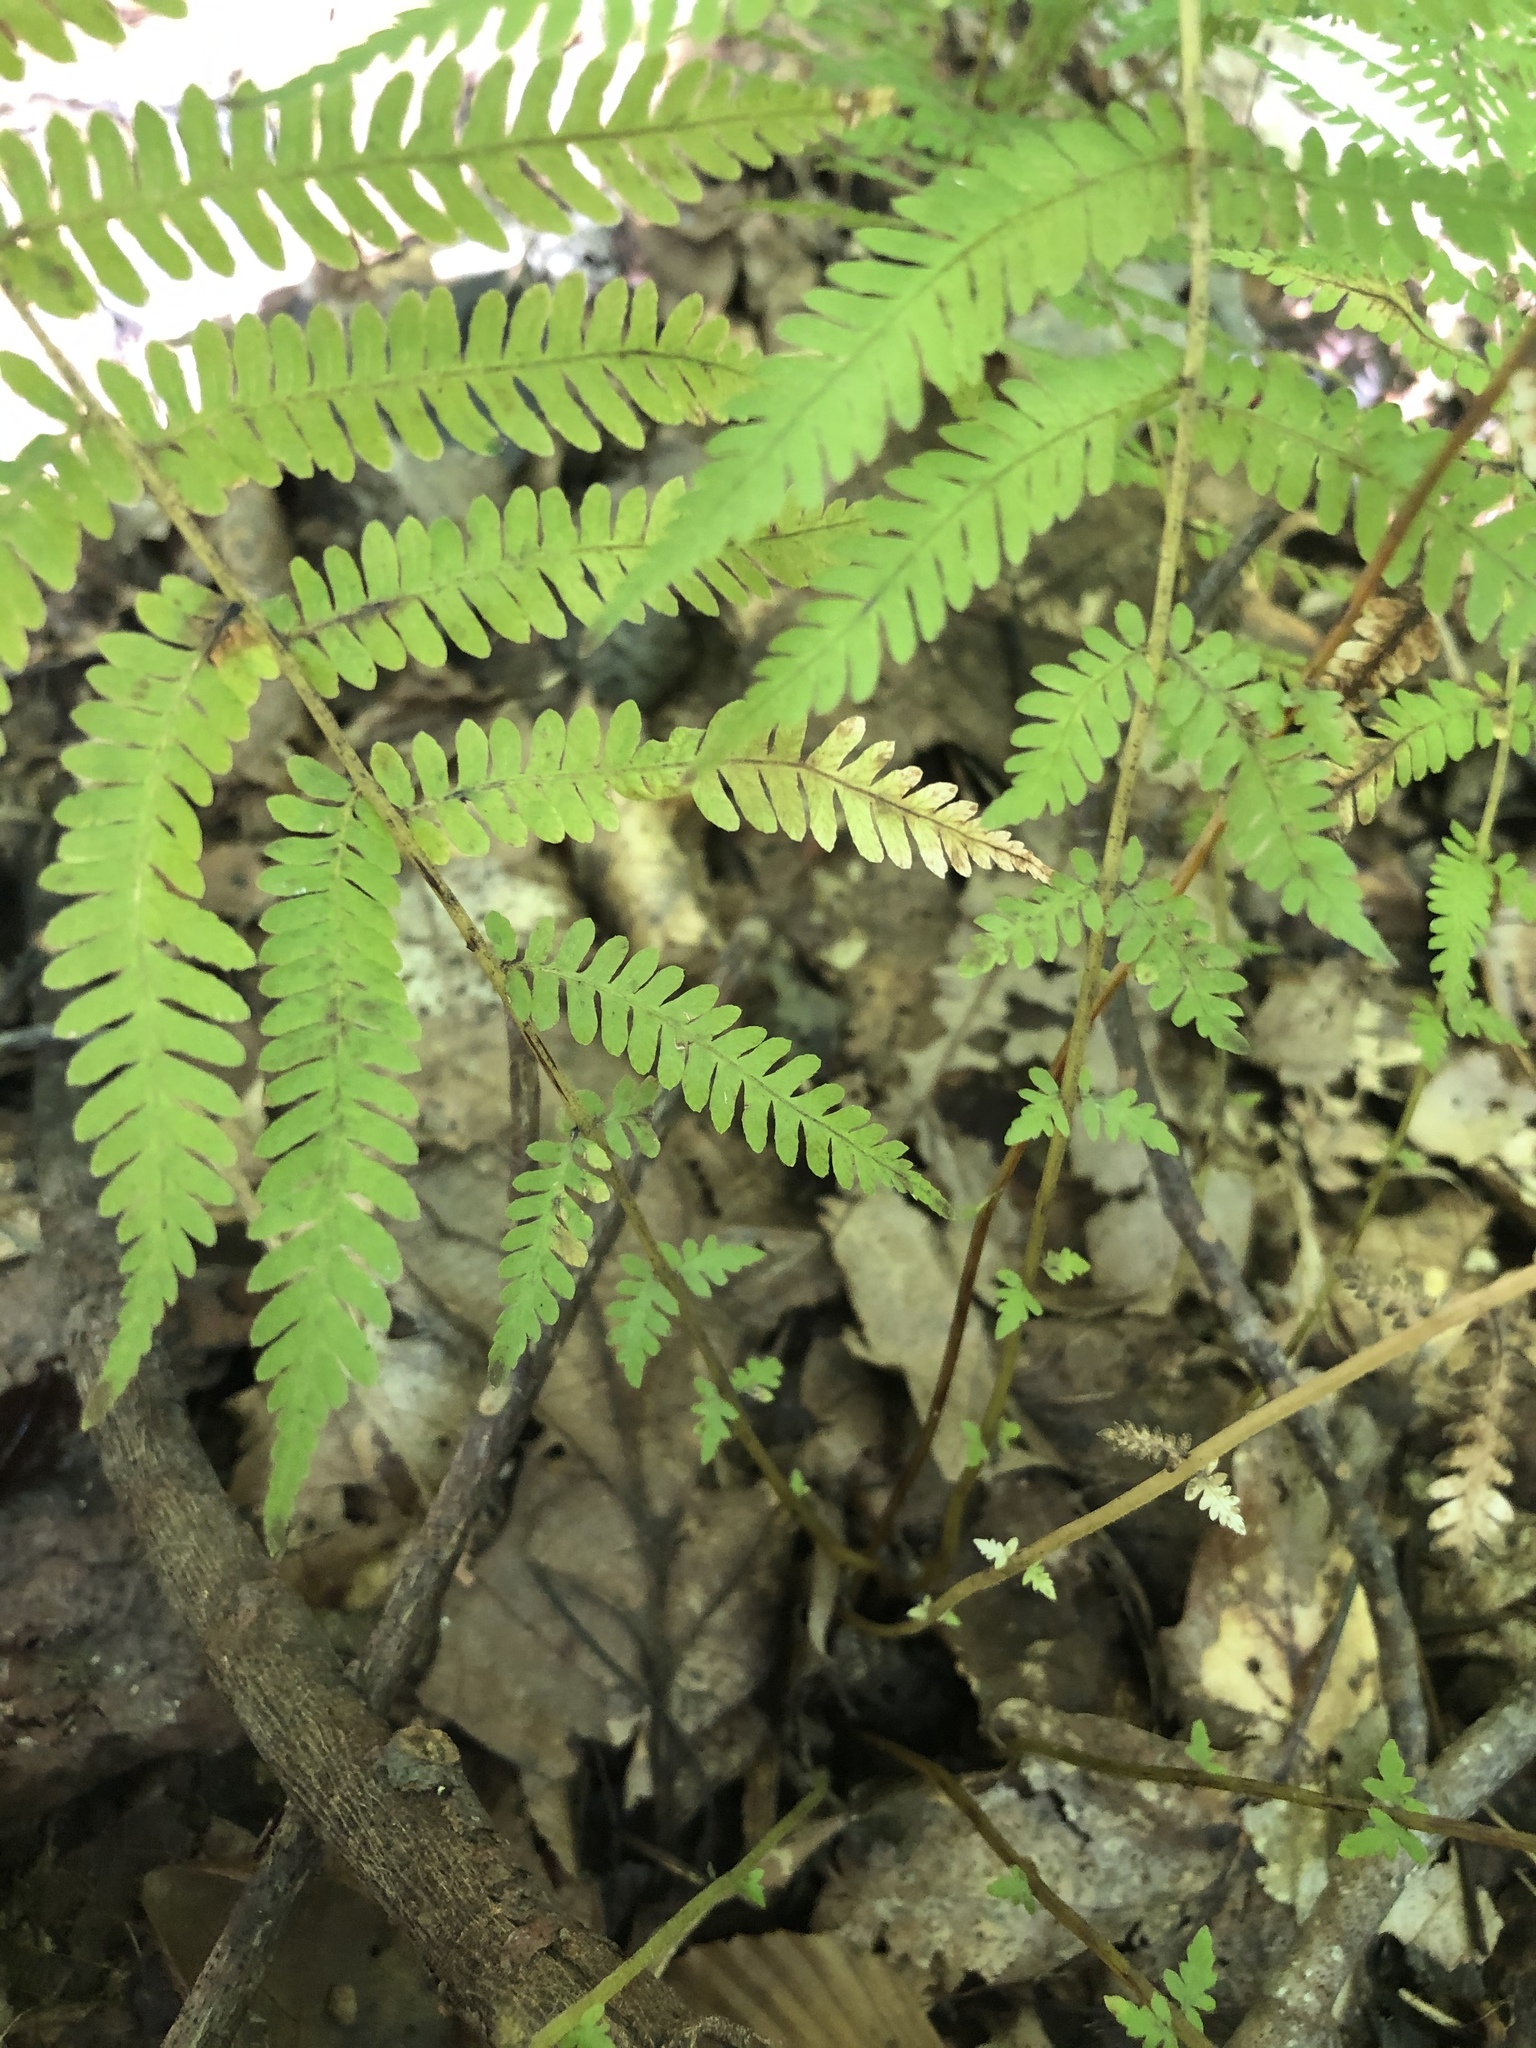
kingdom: Plantae
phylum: Tracheophyta
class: Polypodiopsida
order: Polypodiales
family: Thelypteridaceae
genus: Amauropelta
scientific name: Amauropelta noveboracensis
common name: New york fern
